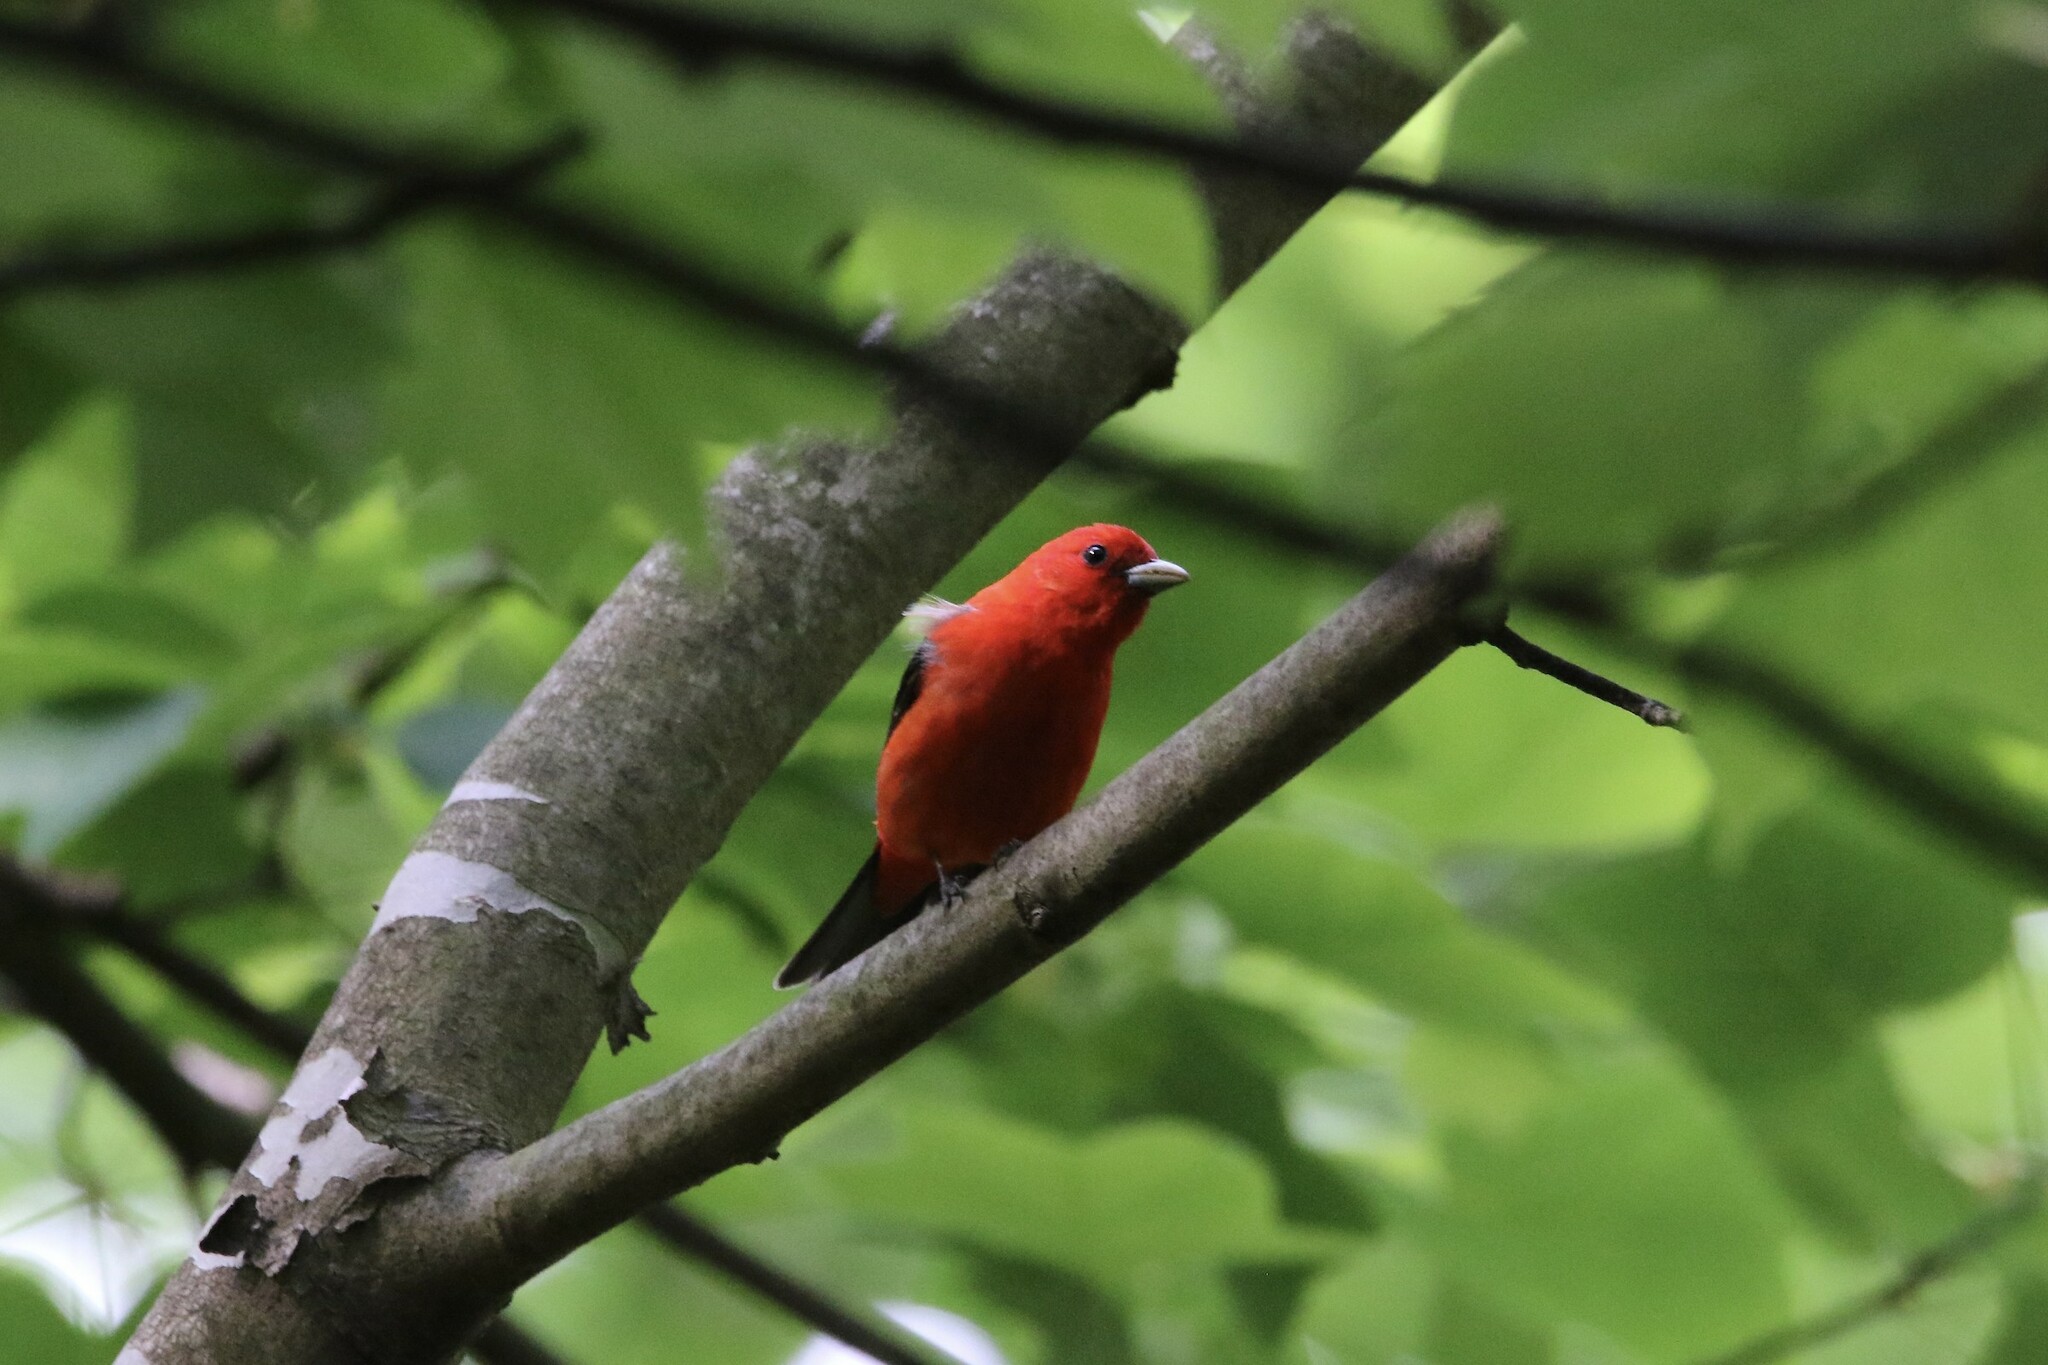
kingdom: Animalia
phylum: Chordata
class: Aves
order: Passeriformes
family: Cardinalidae
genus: Piranga
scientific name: Piranga olivacea
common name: Scarlet tanager
